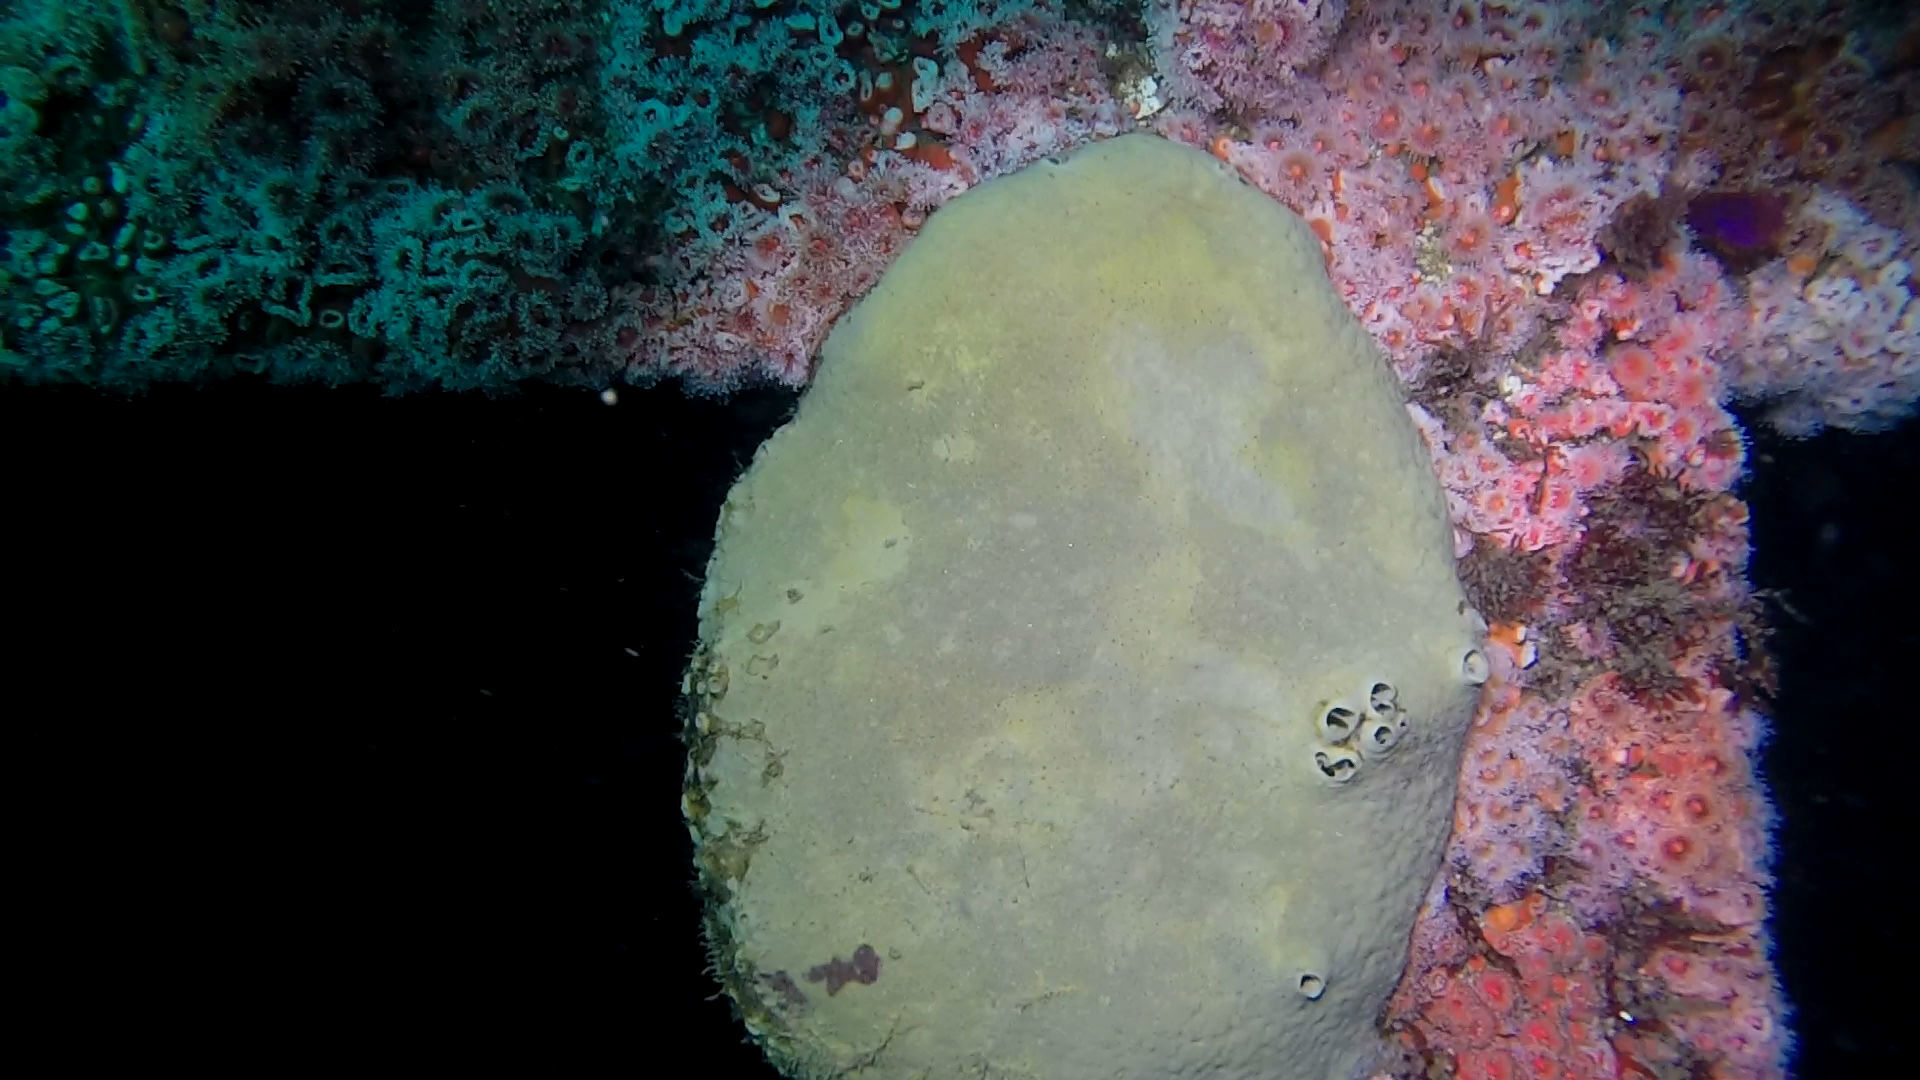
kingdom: Animalia
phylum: Porifera
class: Demospongiae
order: Clionaida
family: Clionaidae
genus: Spheciospongia
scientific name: Spheciospongia confoederata
